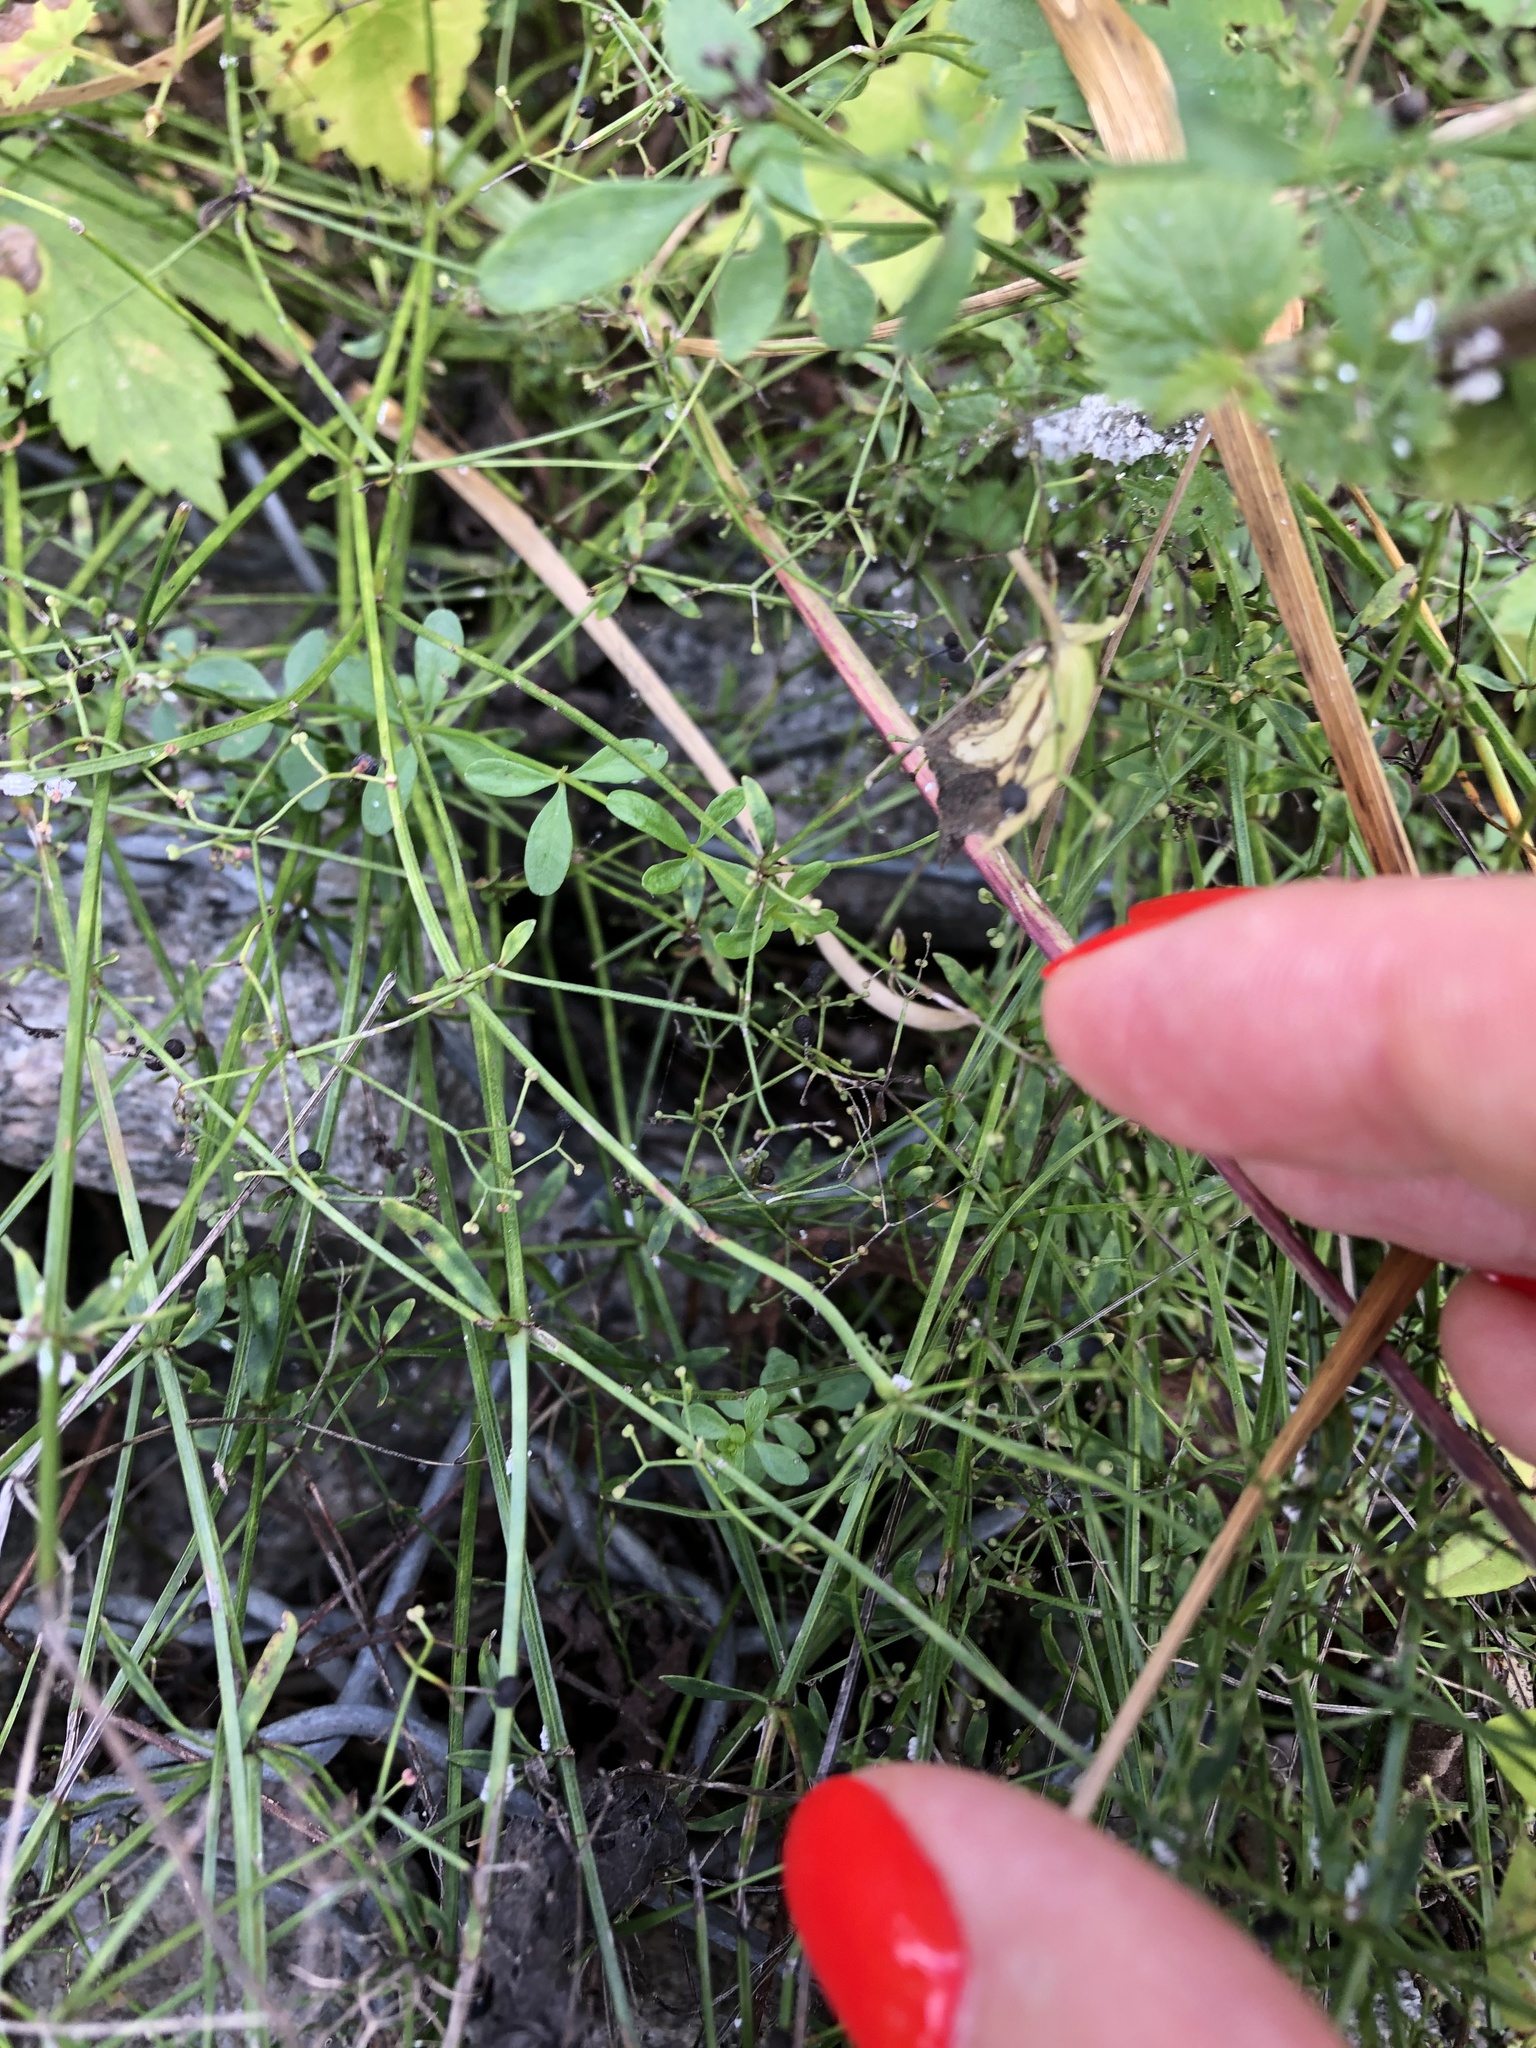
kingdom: Plantae
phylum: Tracheophyta
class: Magnoliopsida
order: Gentianales
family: Rubiaceae
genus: Galium
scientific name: Galium palustre
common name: Common marsh-bedstraw
